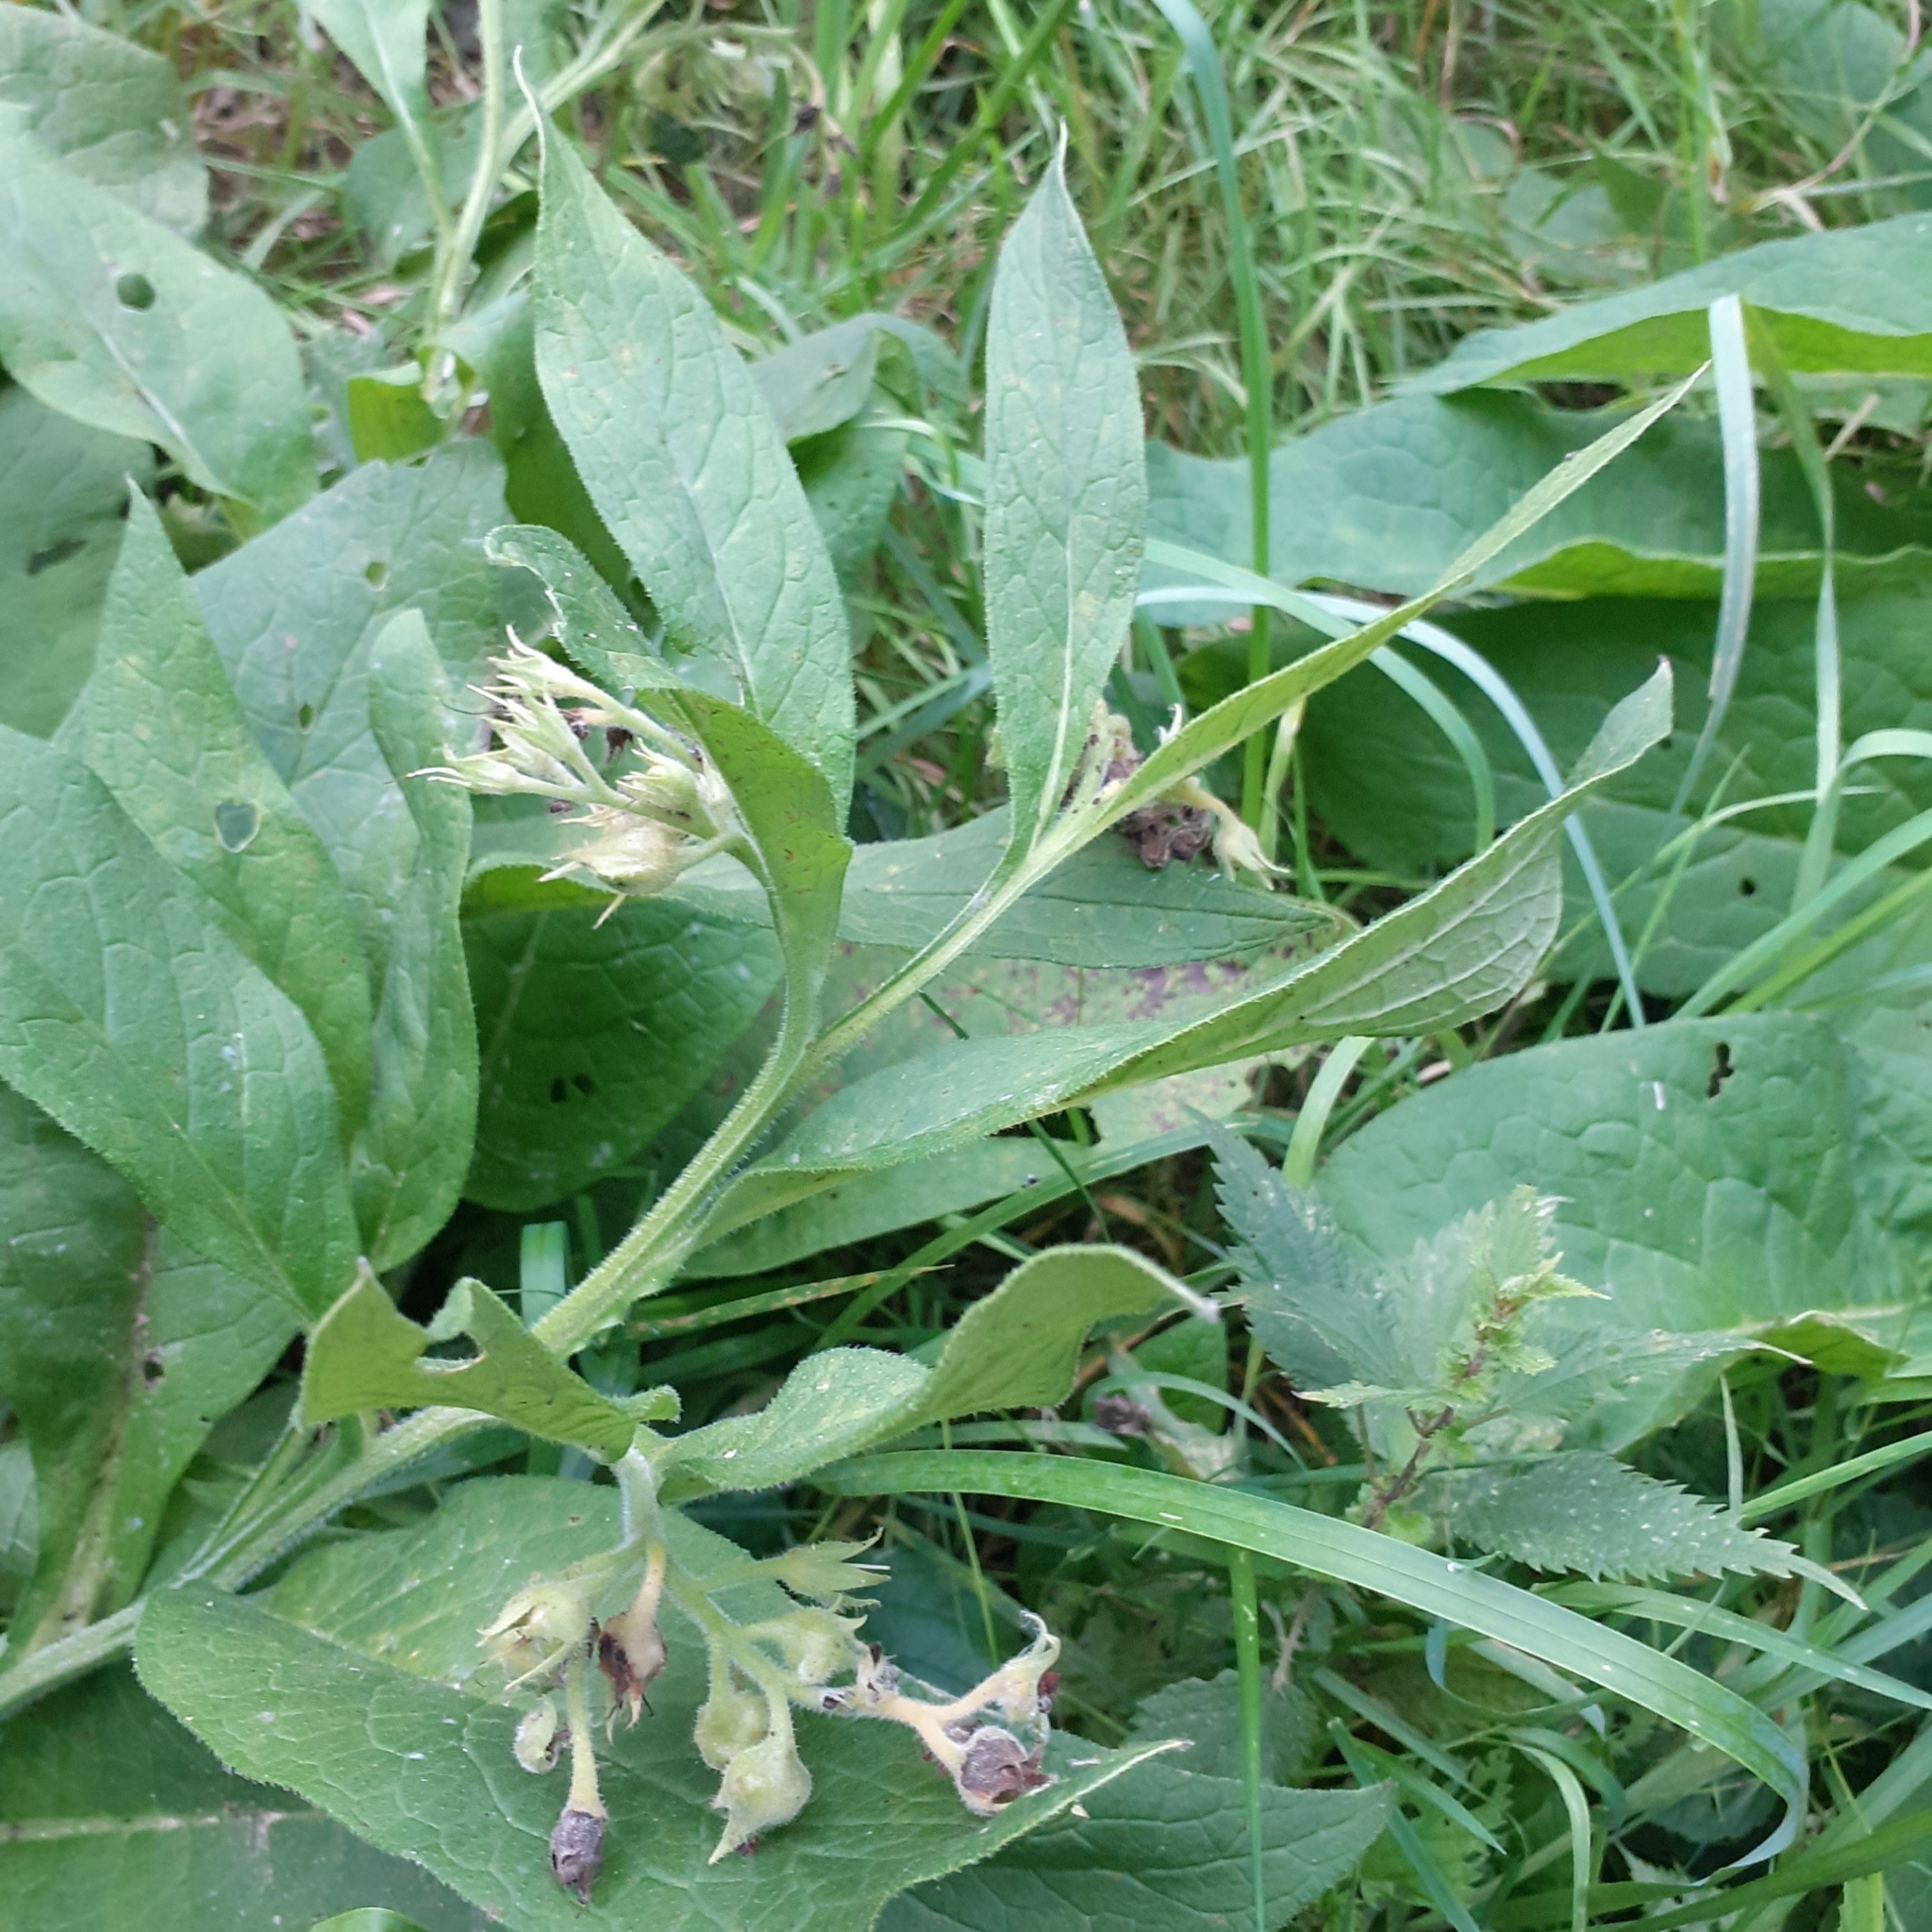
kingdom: Plantae
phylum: Tracheophyta
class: Magnoliopsida
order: Boraginales
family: Boraginaceae
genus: Symphytum
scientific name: Symphytum officinale
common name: Common comfrey
